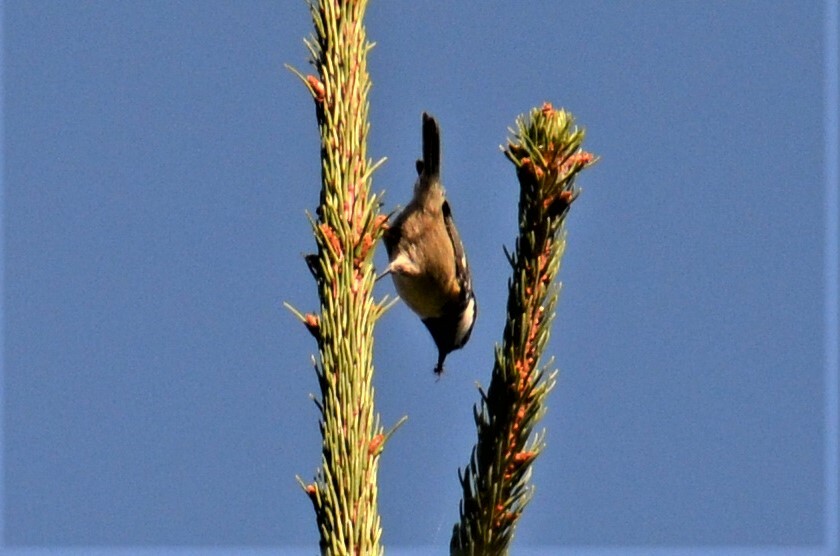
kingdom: Animalia
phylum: Chordata
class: Aves
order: Passeriformes
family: Paridae
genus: Periparus
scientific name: Periparus ater
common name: Coal tit
